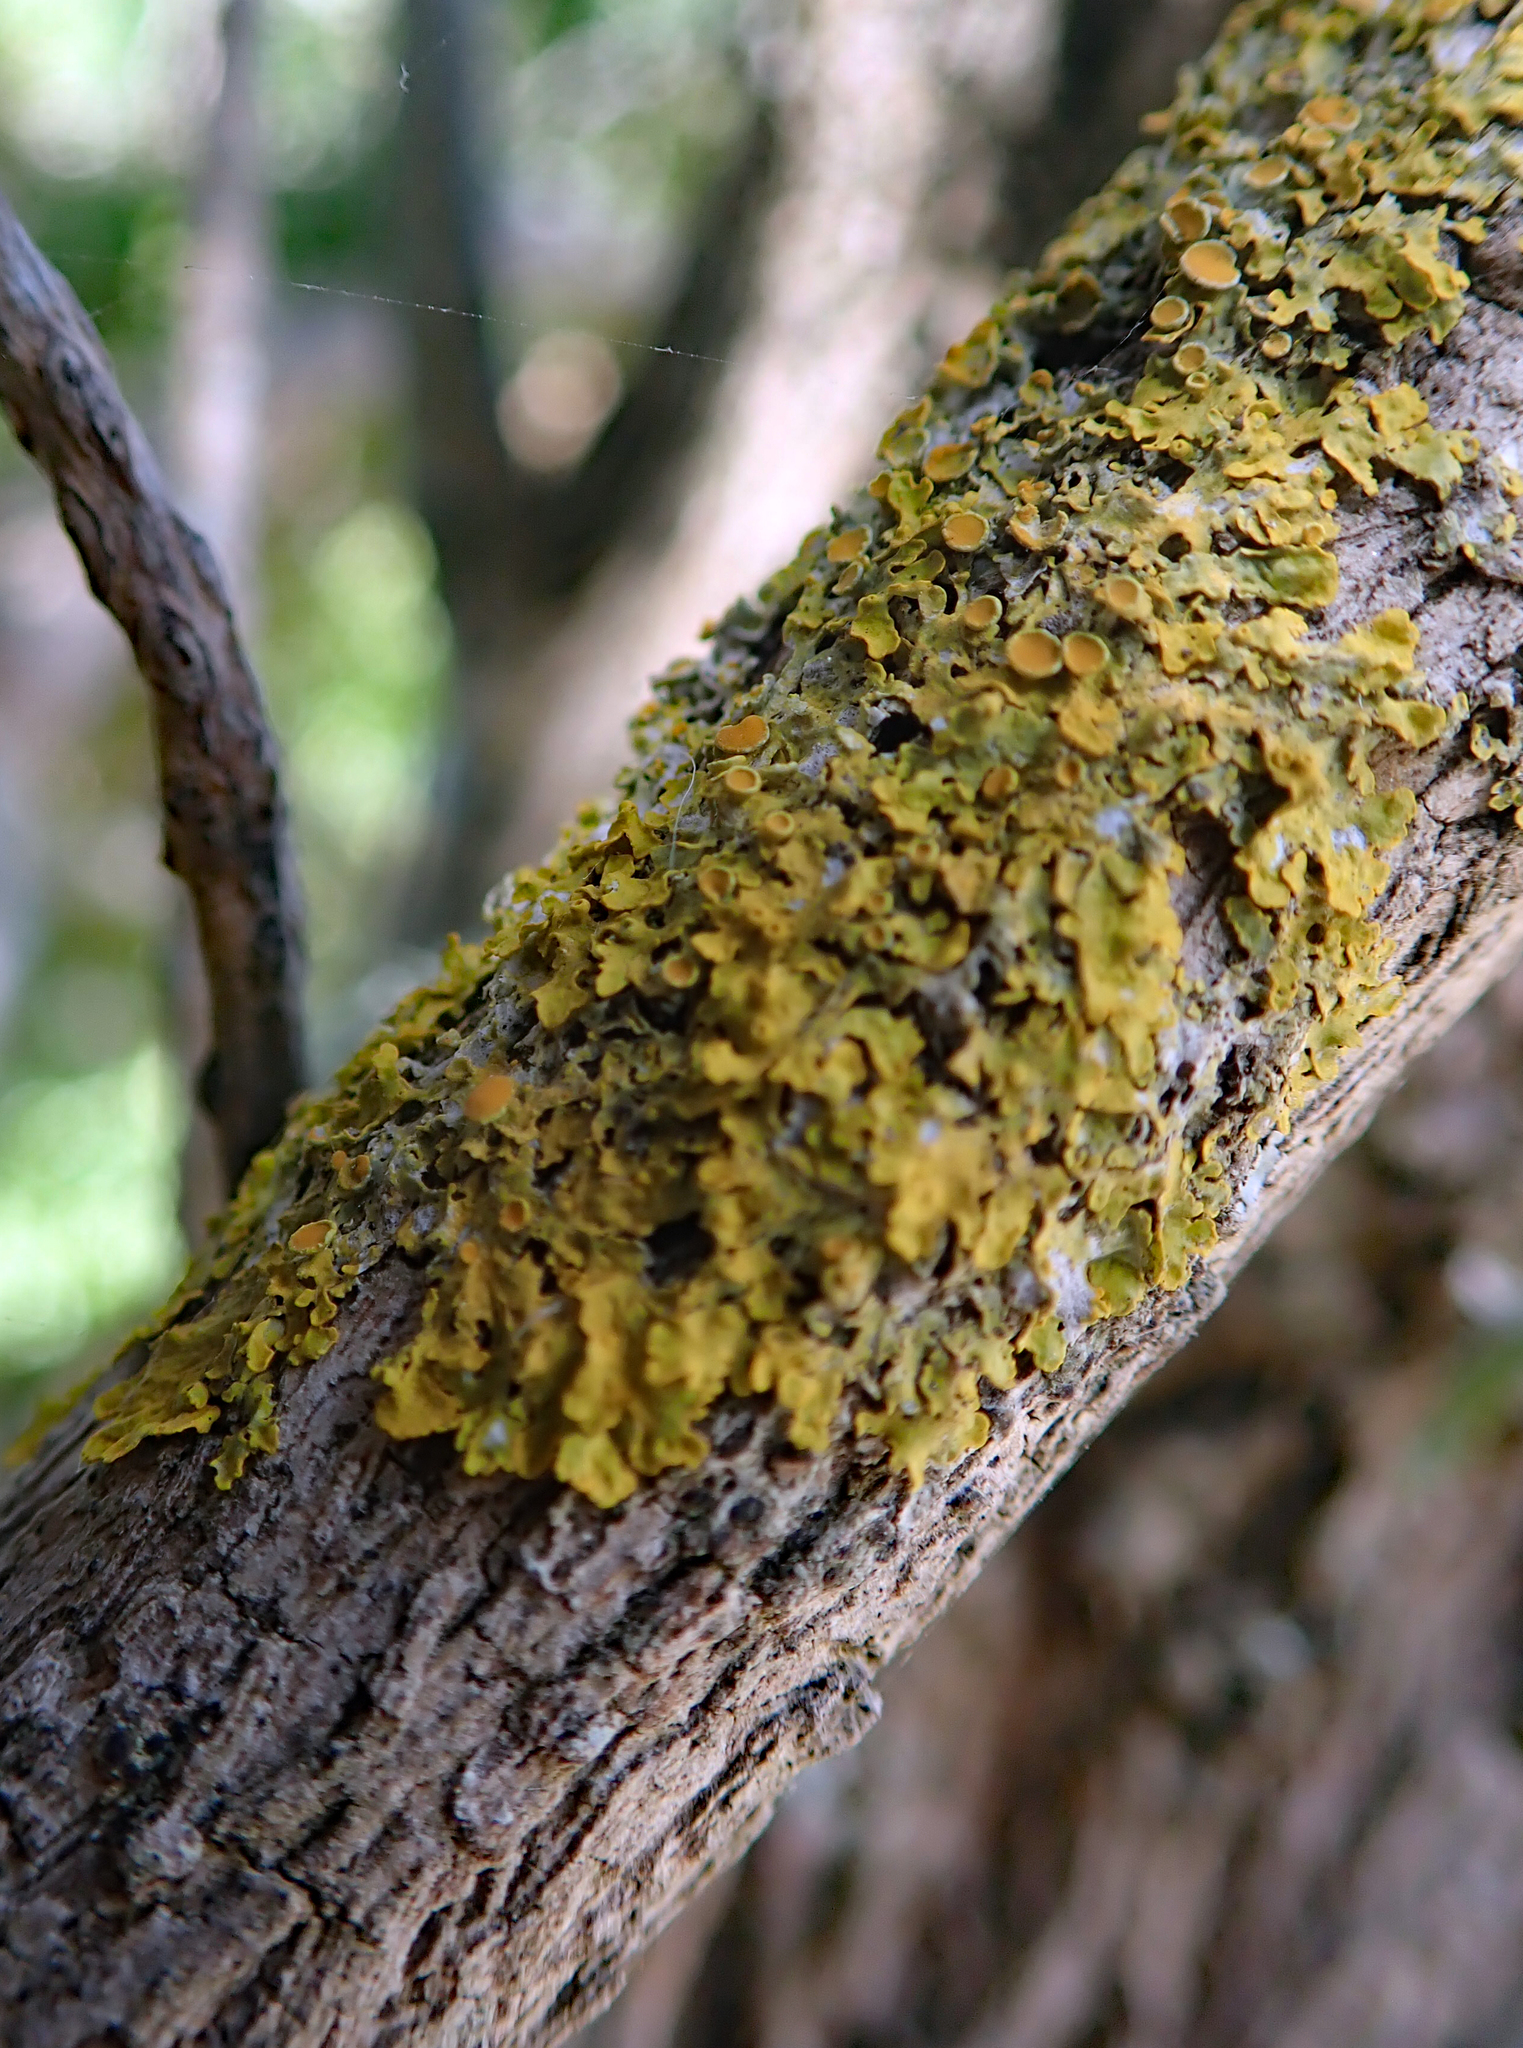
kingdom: Fungi
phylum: Ascomycota
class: Lecanoromycetes
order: Teloschistales
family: Teloschistaceae
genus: Xanthoria
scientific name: Xanthoria parietina
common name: Common orange lichen
